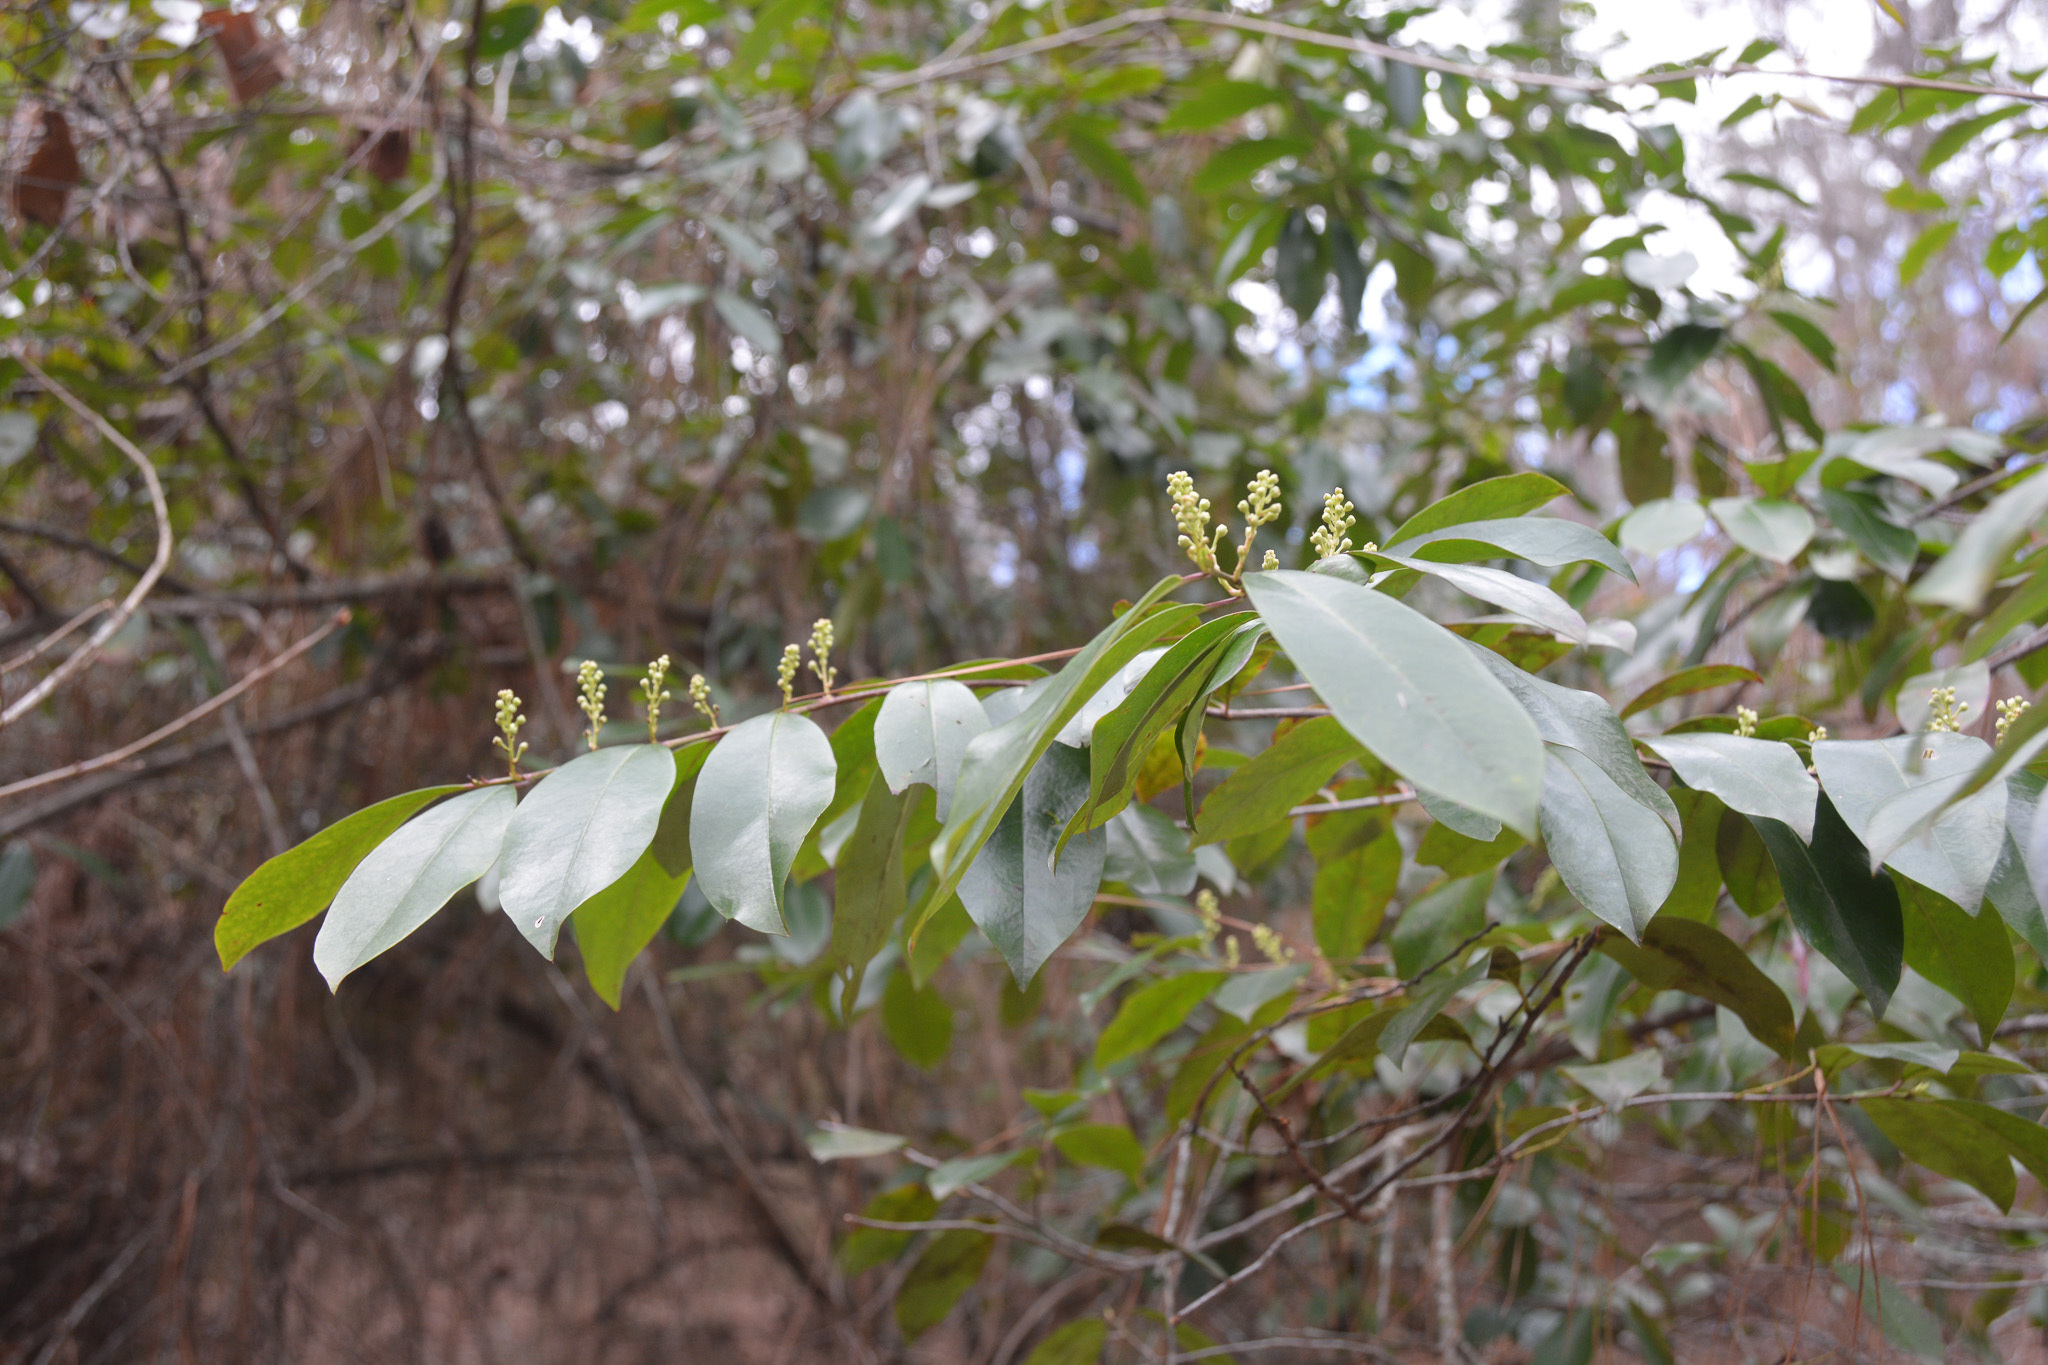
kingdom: Plantae
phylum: Tracheophyta
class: Magnoliopsida
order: Rosales
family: Rosaceae
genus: Prunus
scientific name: Prunus caroliniana
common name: Carolina laurel cherry
